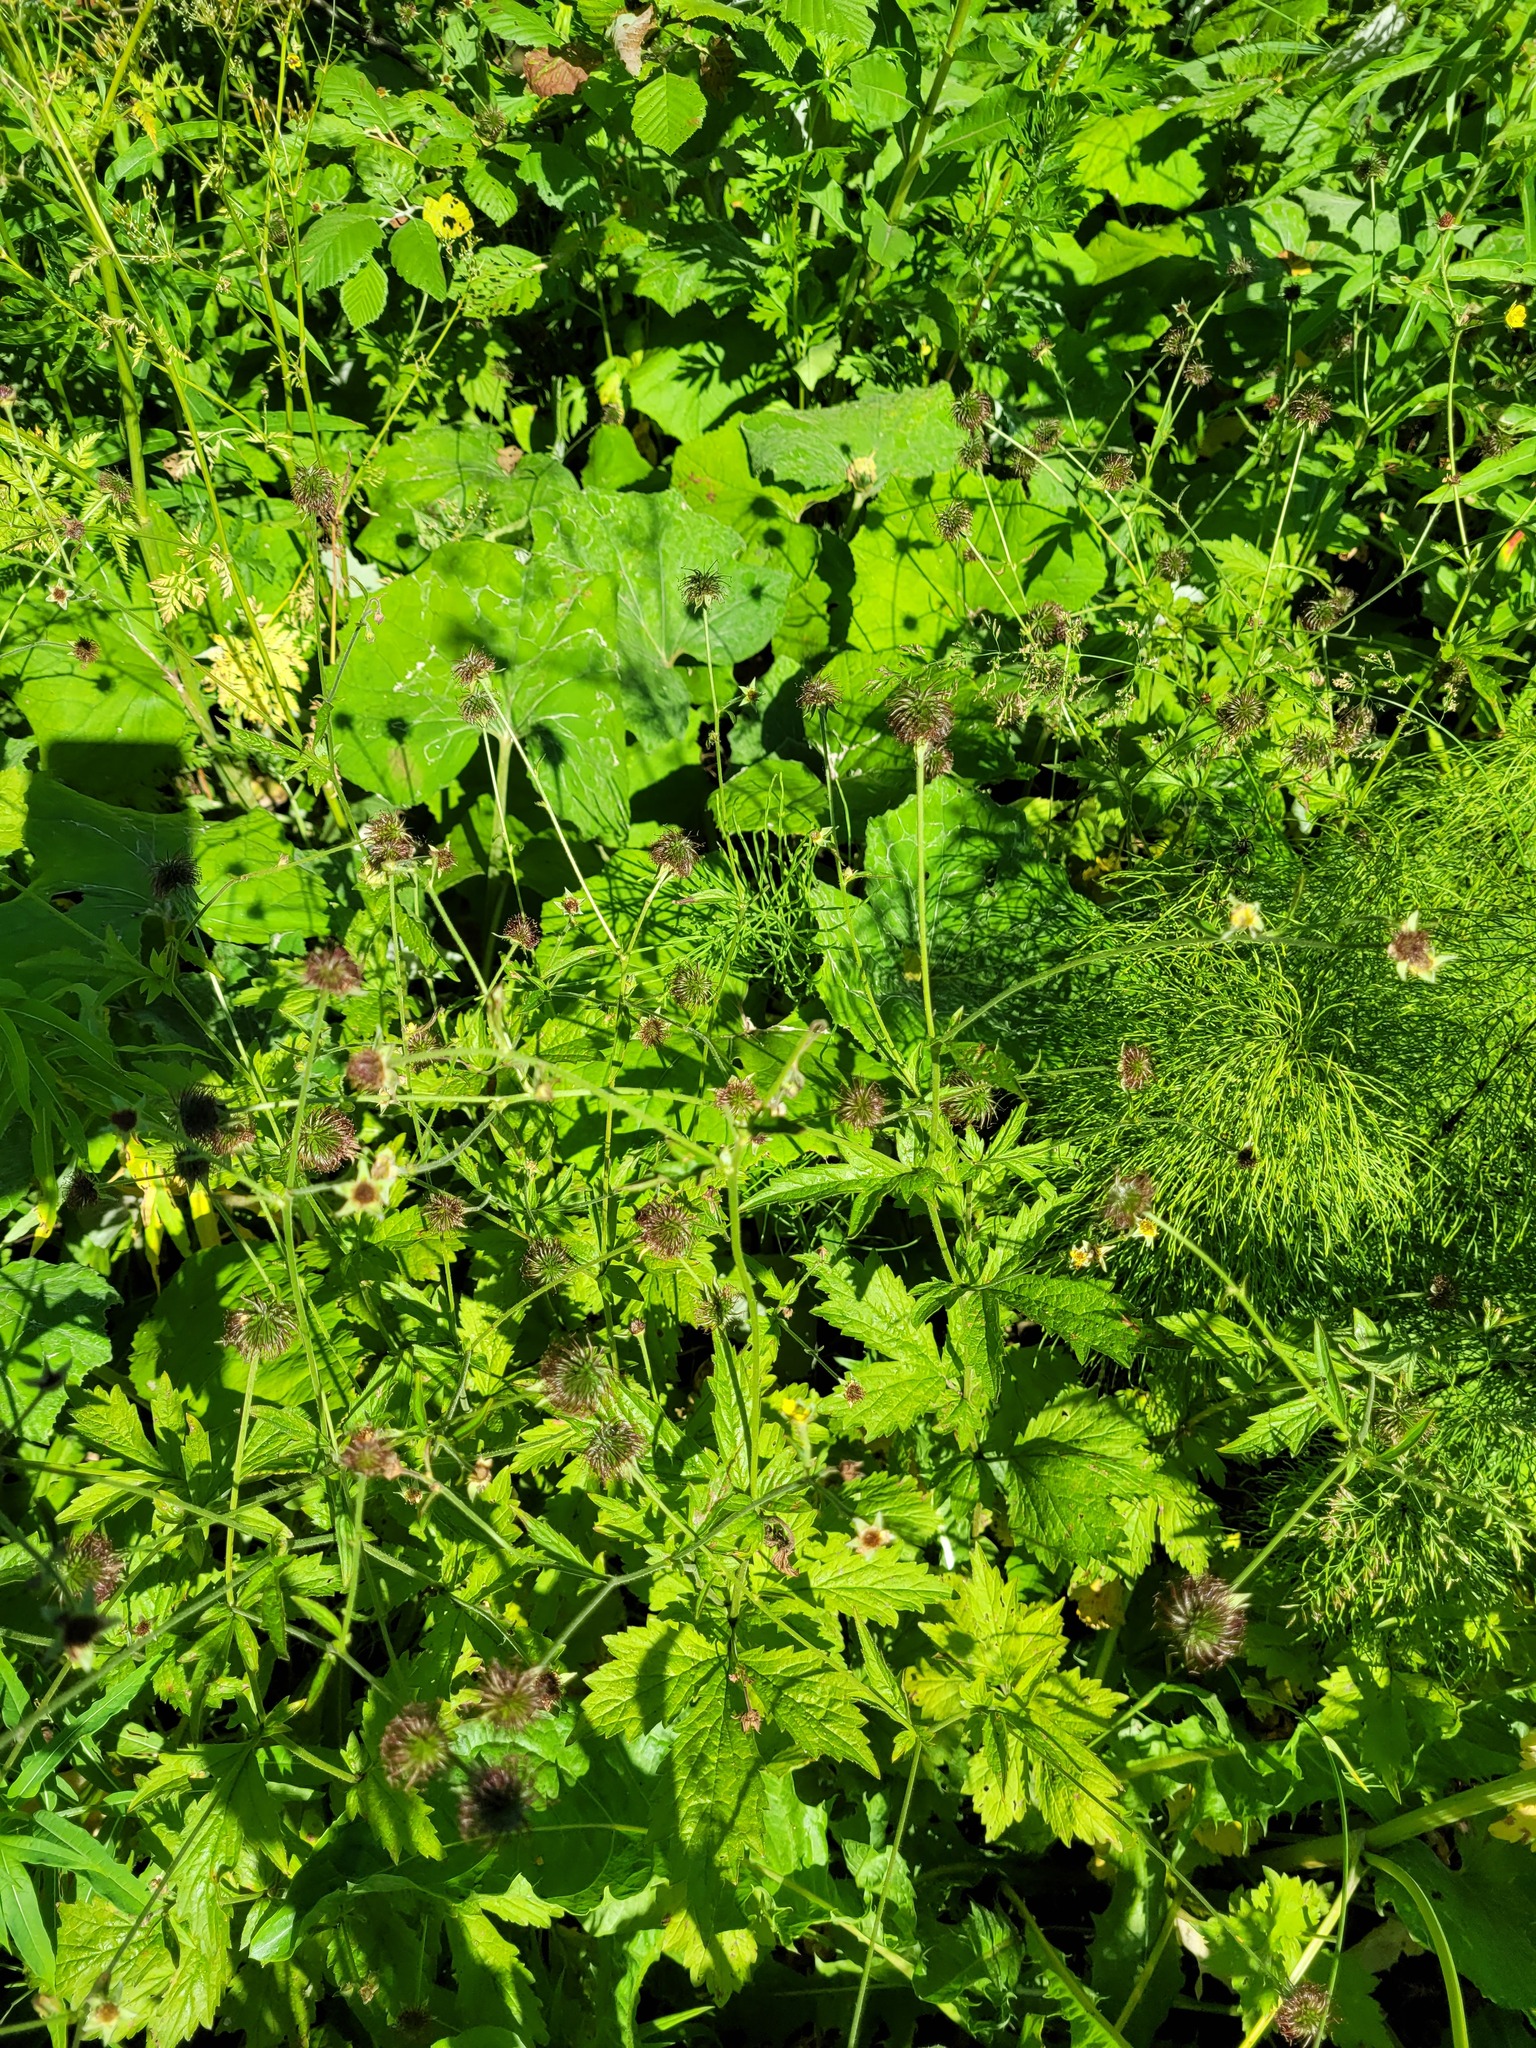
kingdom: Plantae
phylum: Tracheophyta
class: Magnoliopsida
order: Rosales
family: Rosaceae
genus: Geum
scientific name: Geum urbanum
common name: Wood avens
